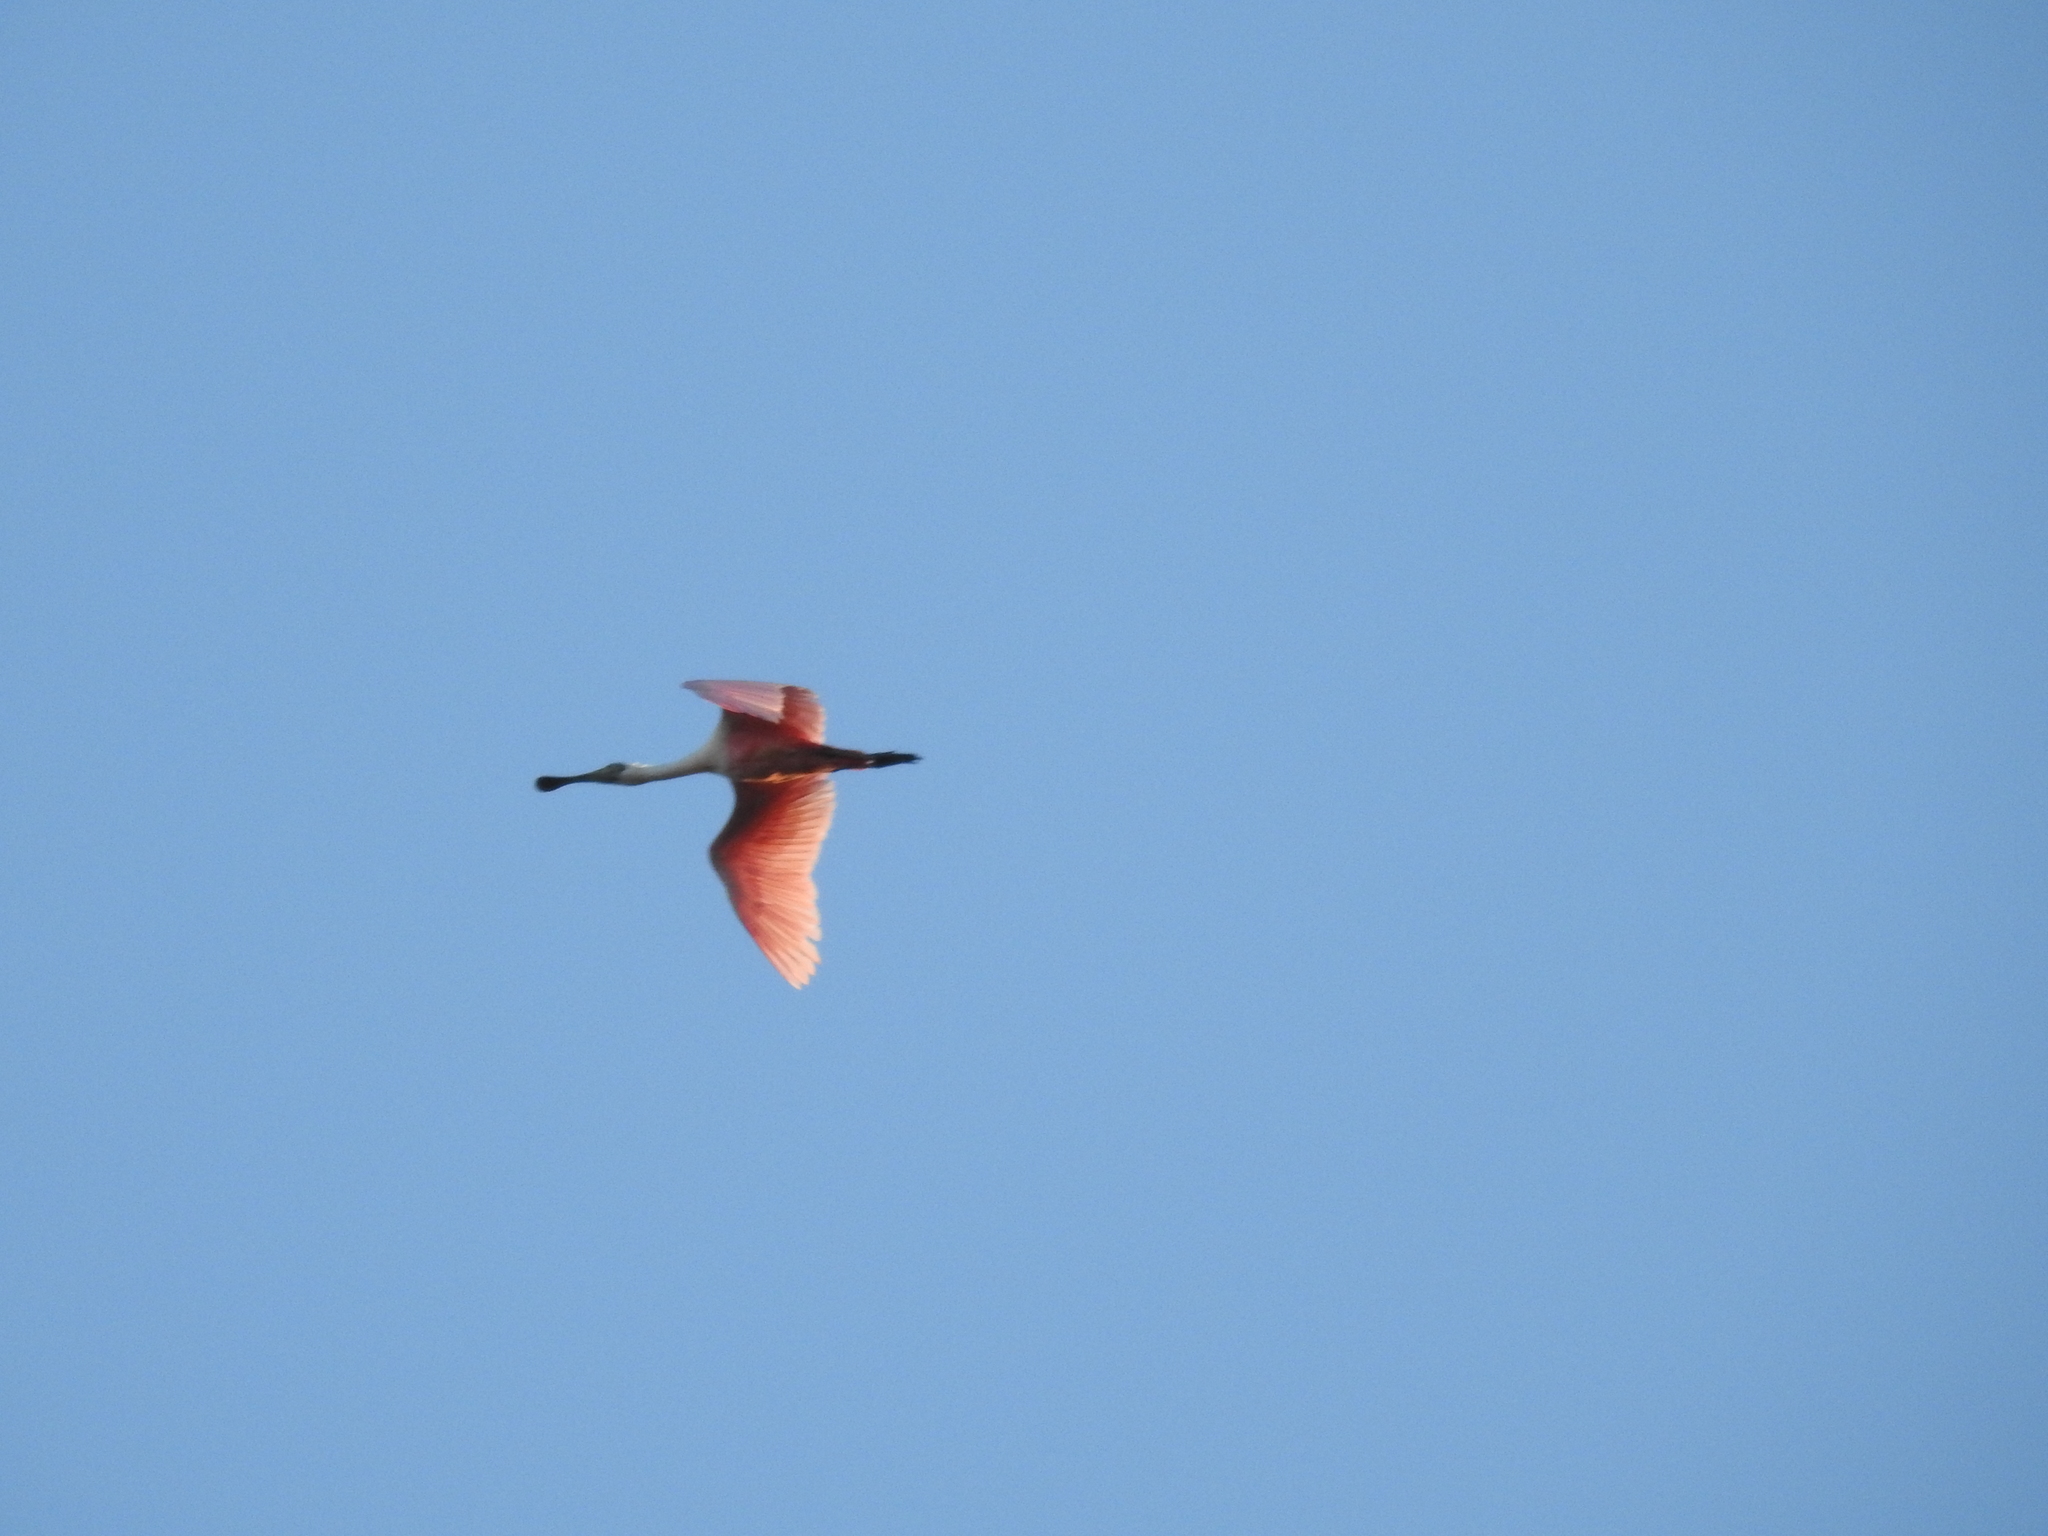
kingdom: Animalia
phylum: Chordata
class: Aves
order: Pelecaniformes
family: Threskiornithidae
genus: Platalea
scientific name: Platalea ajaja
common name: Roseate spoonbill
